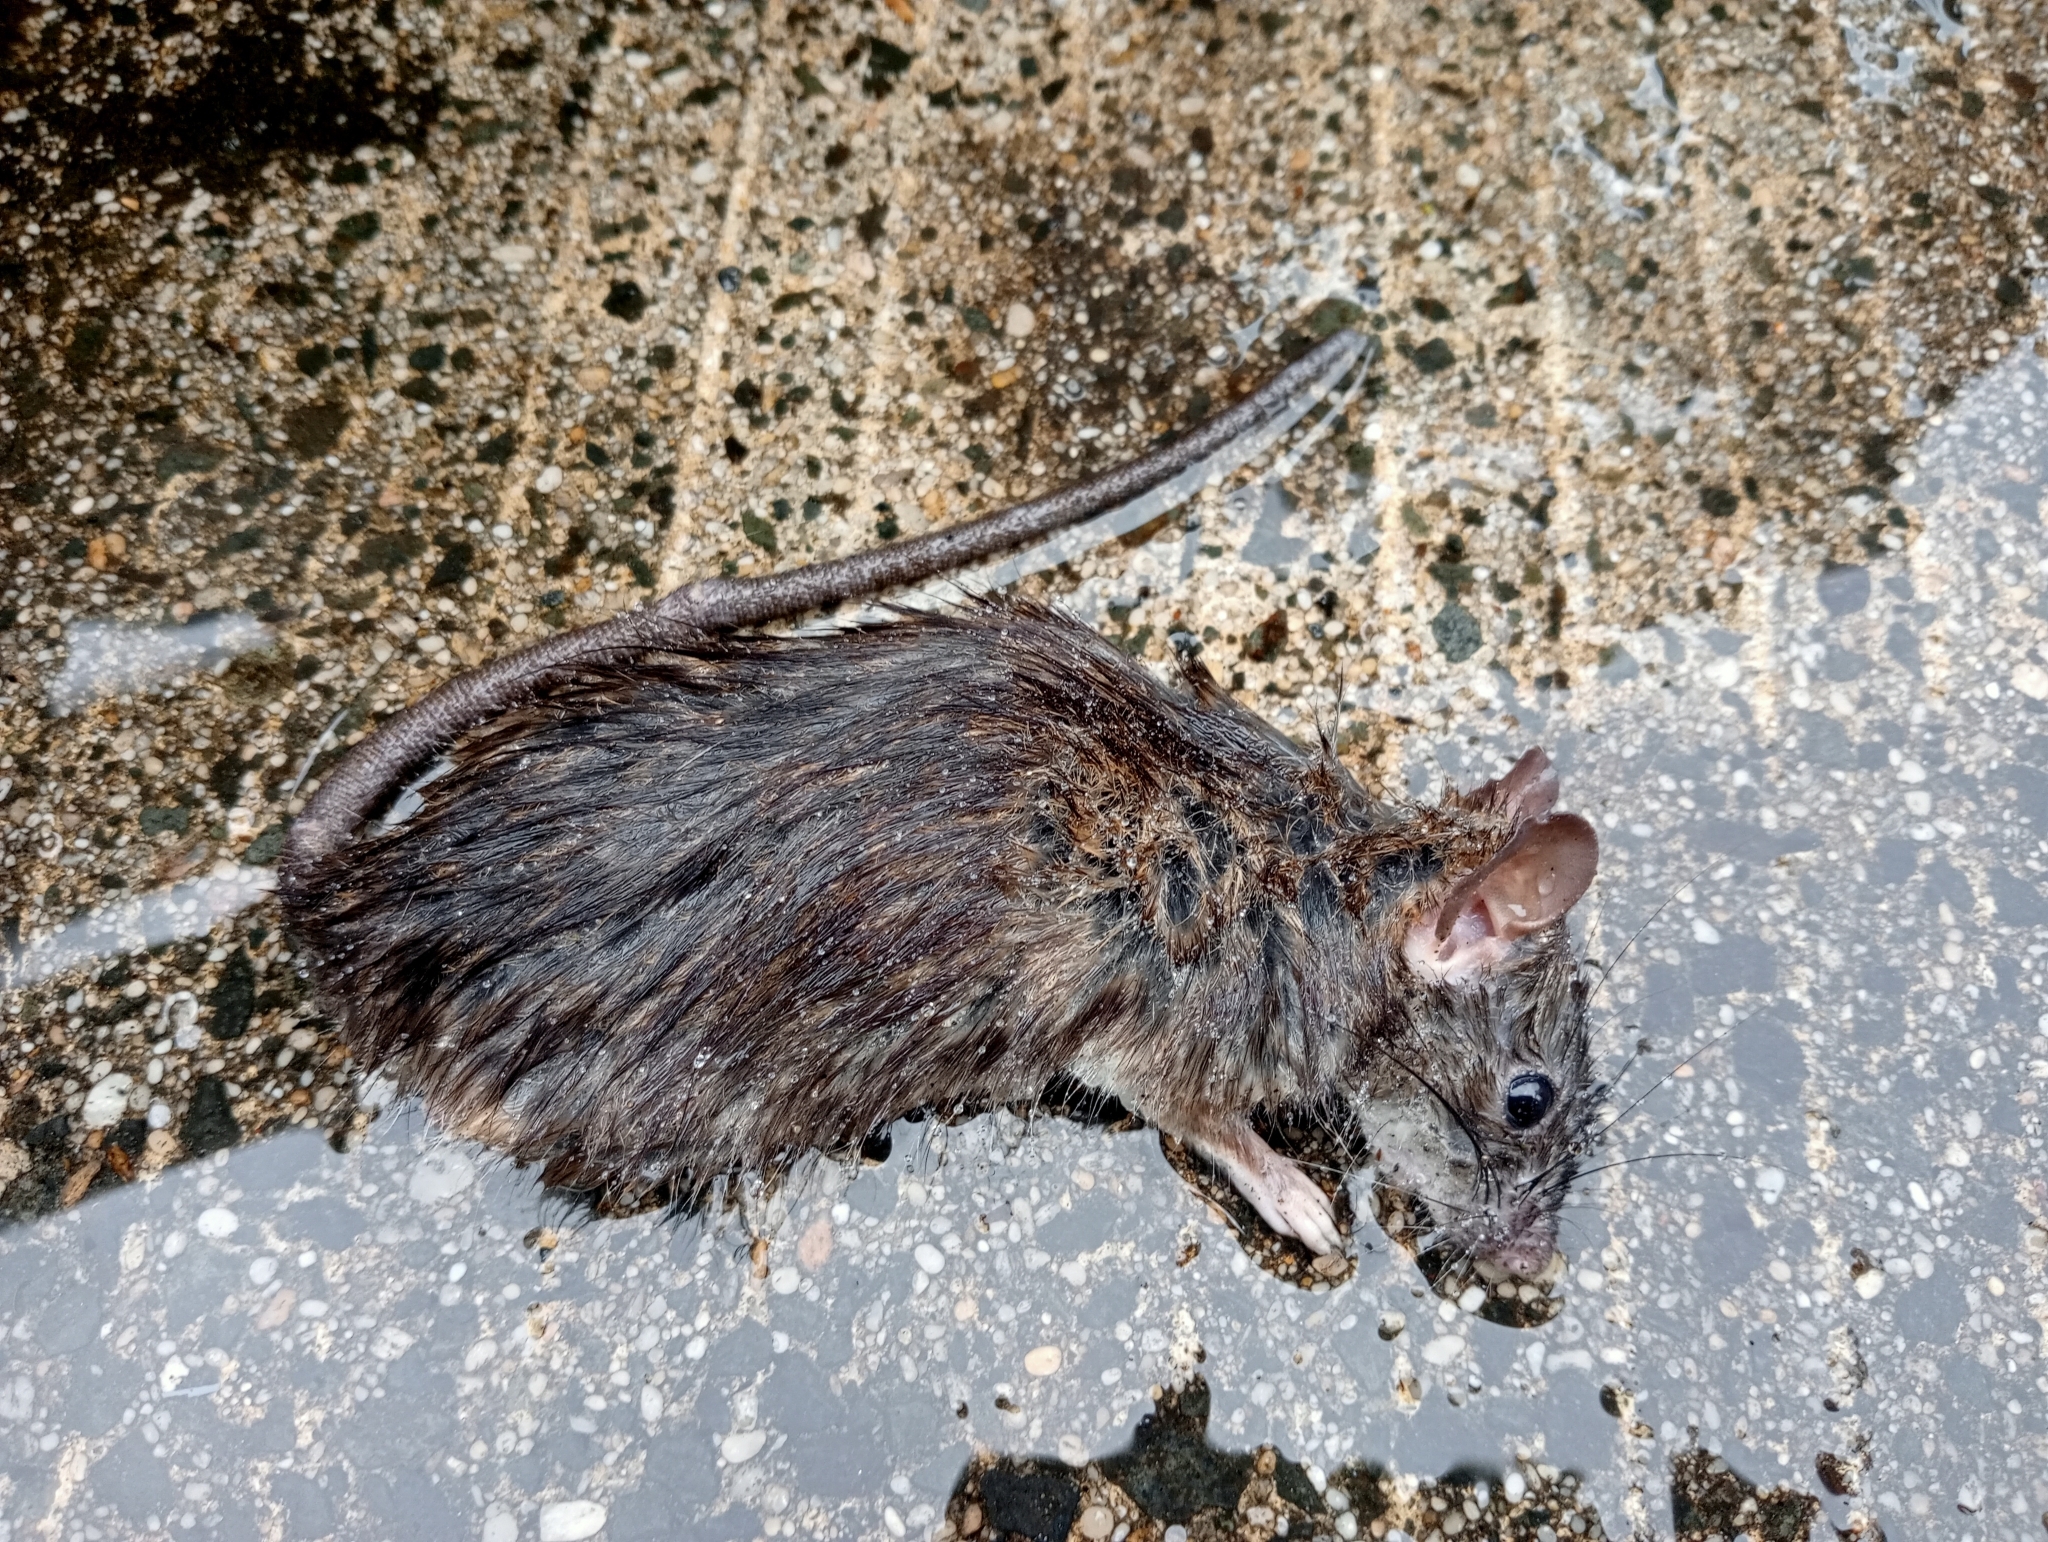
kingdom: Animalia
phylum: Chordata
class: Mammalia
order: Rodentia
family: Muridae
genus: Rattus
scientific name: Rattus rattus
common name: Black rat
